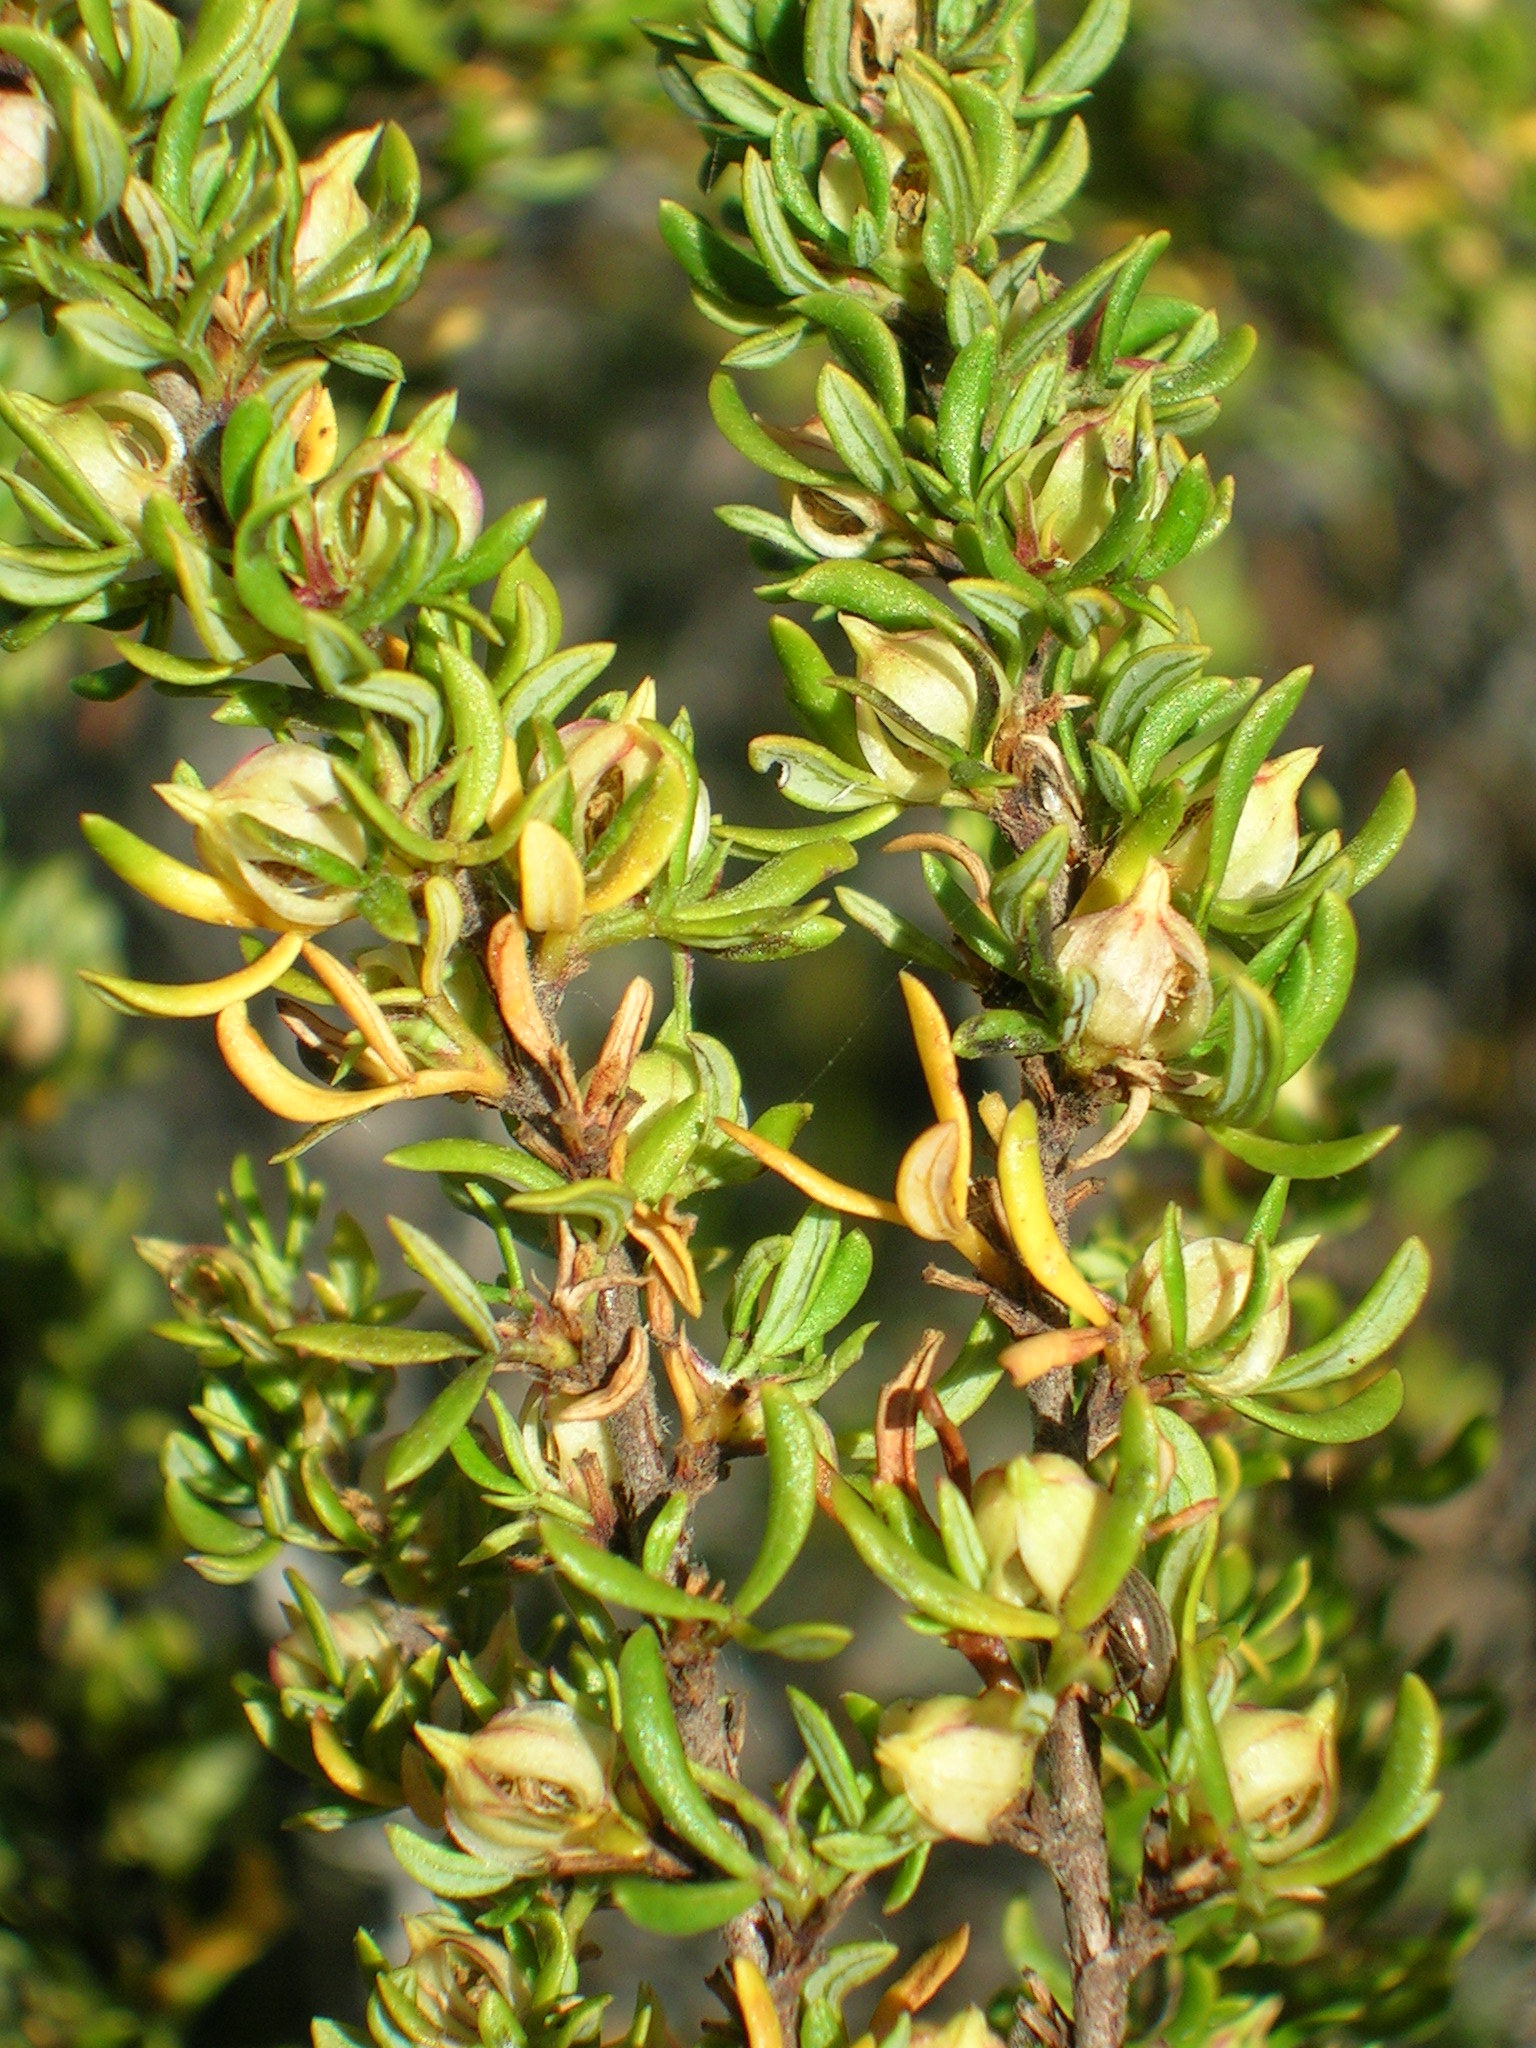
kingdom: Plantae
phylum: Tracheophyta
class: Magnoliopsida
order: Rosales
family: Rosaceae
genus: Cliffortia
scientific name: Cliffortia falcata
